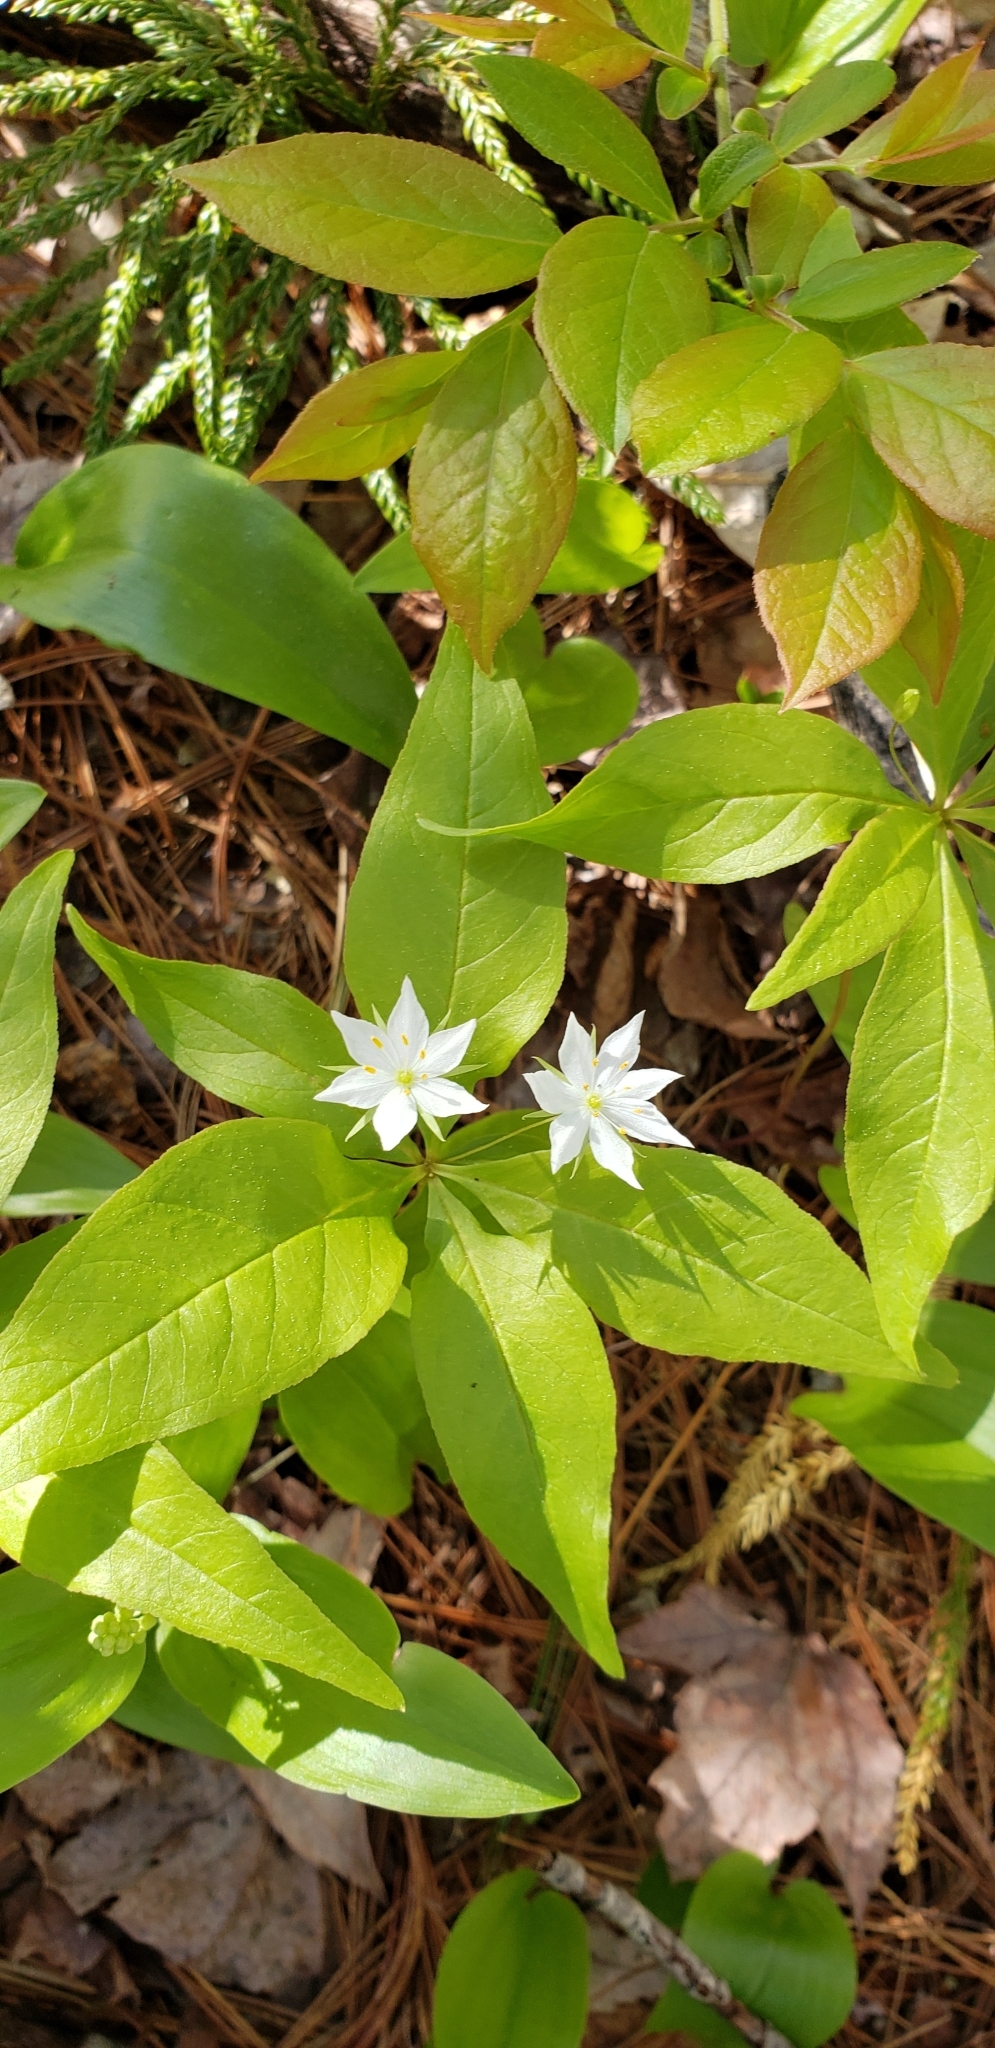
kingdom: Plantae
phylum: Tracheophyta
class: Magnoliopsida
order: Ericales
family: Primulaceae
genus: Lysimachia
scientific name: Lysimachia borealis
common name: American starflower
